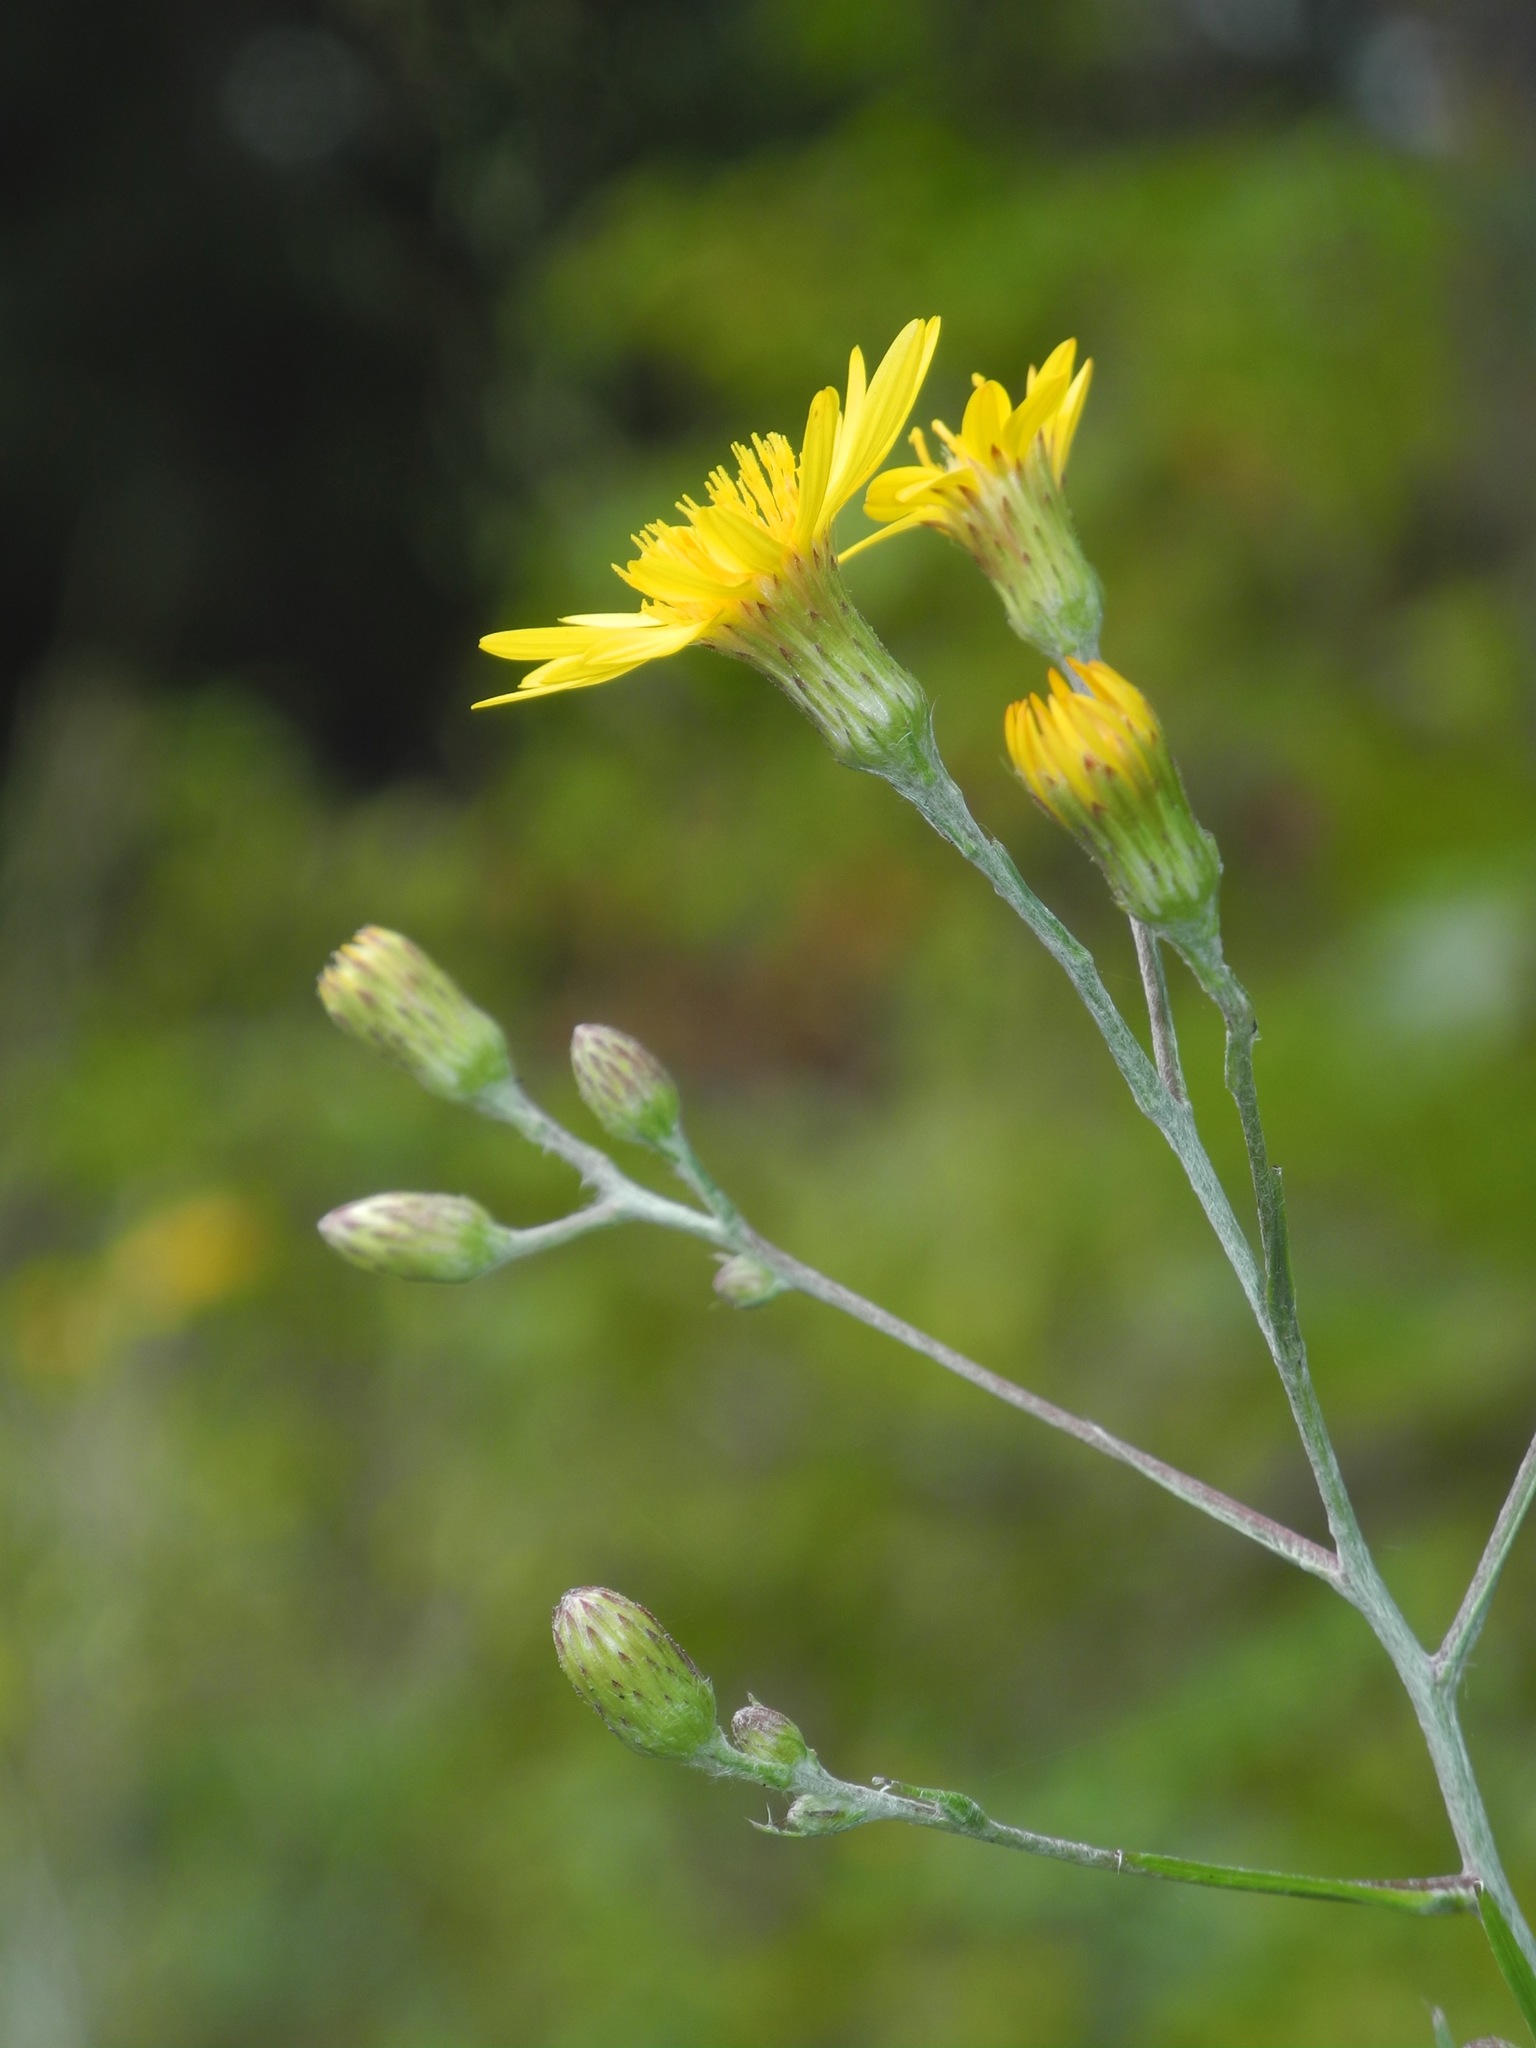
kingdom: Plantae
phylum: Tracheophyta
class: Magnoliopsida
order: Asterales
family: Asteraceae
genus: Pityopsis
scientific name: Pityopsis aspera
